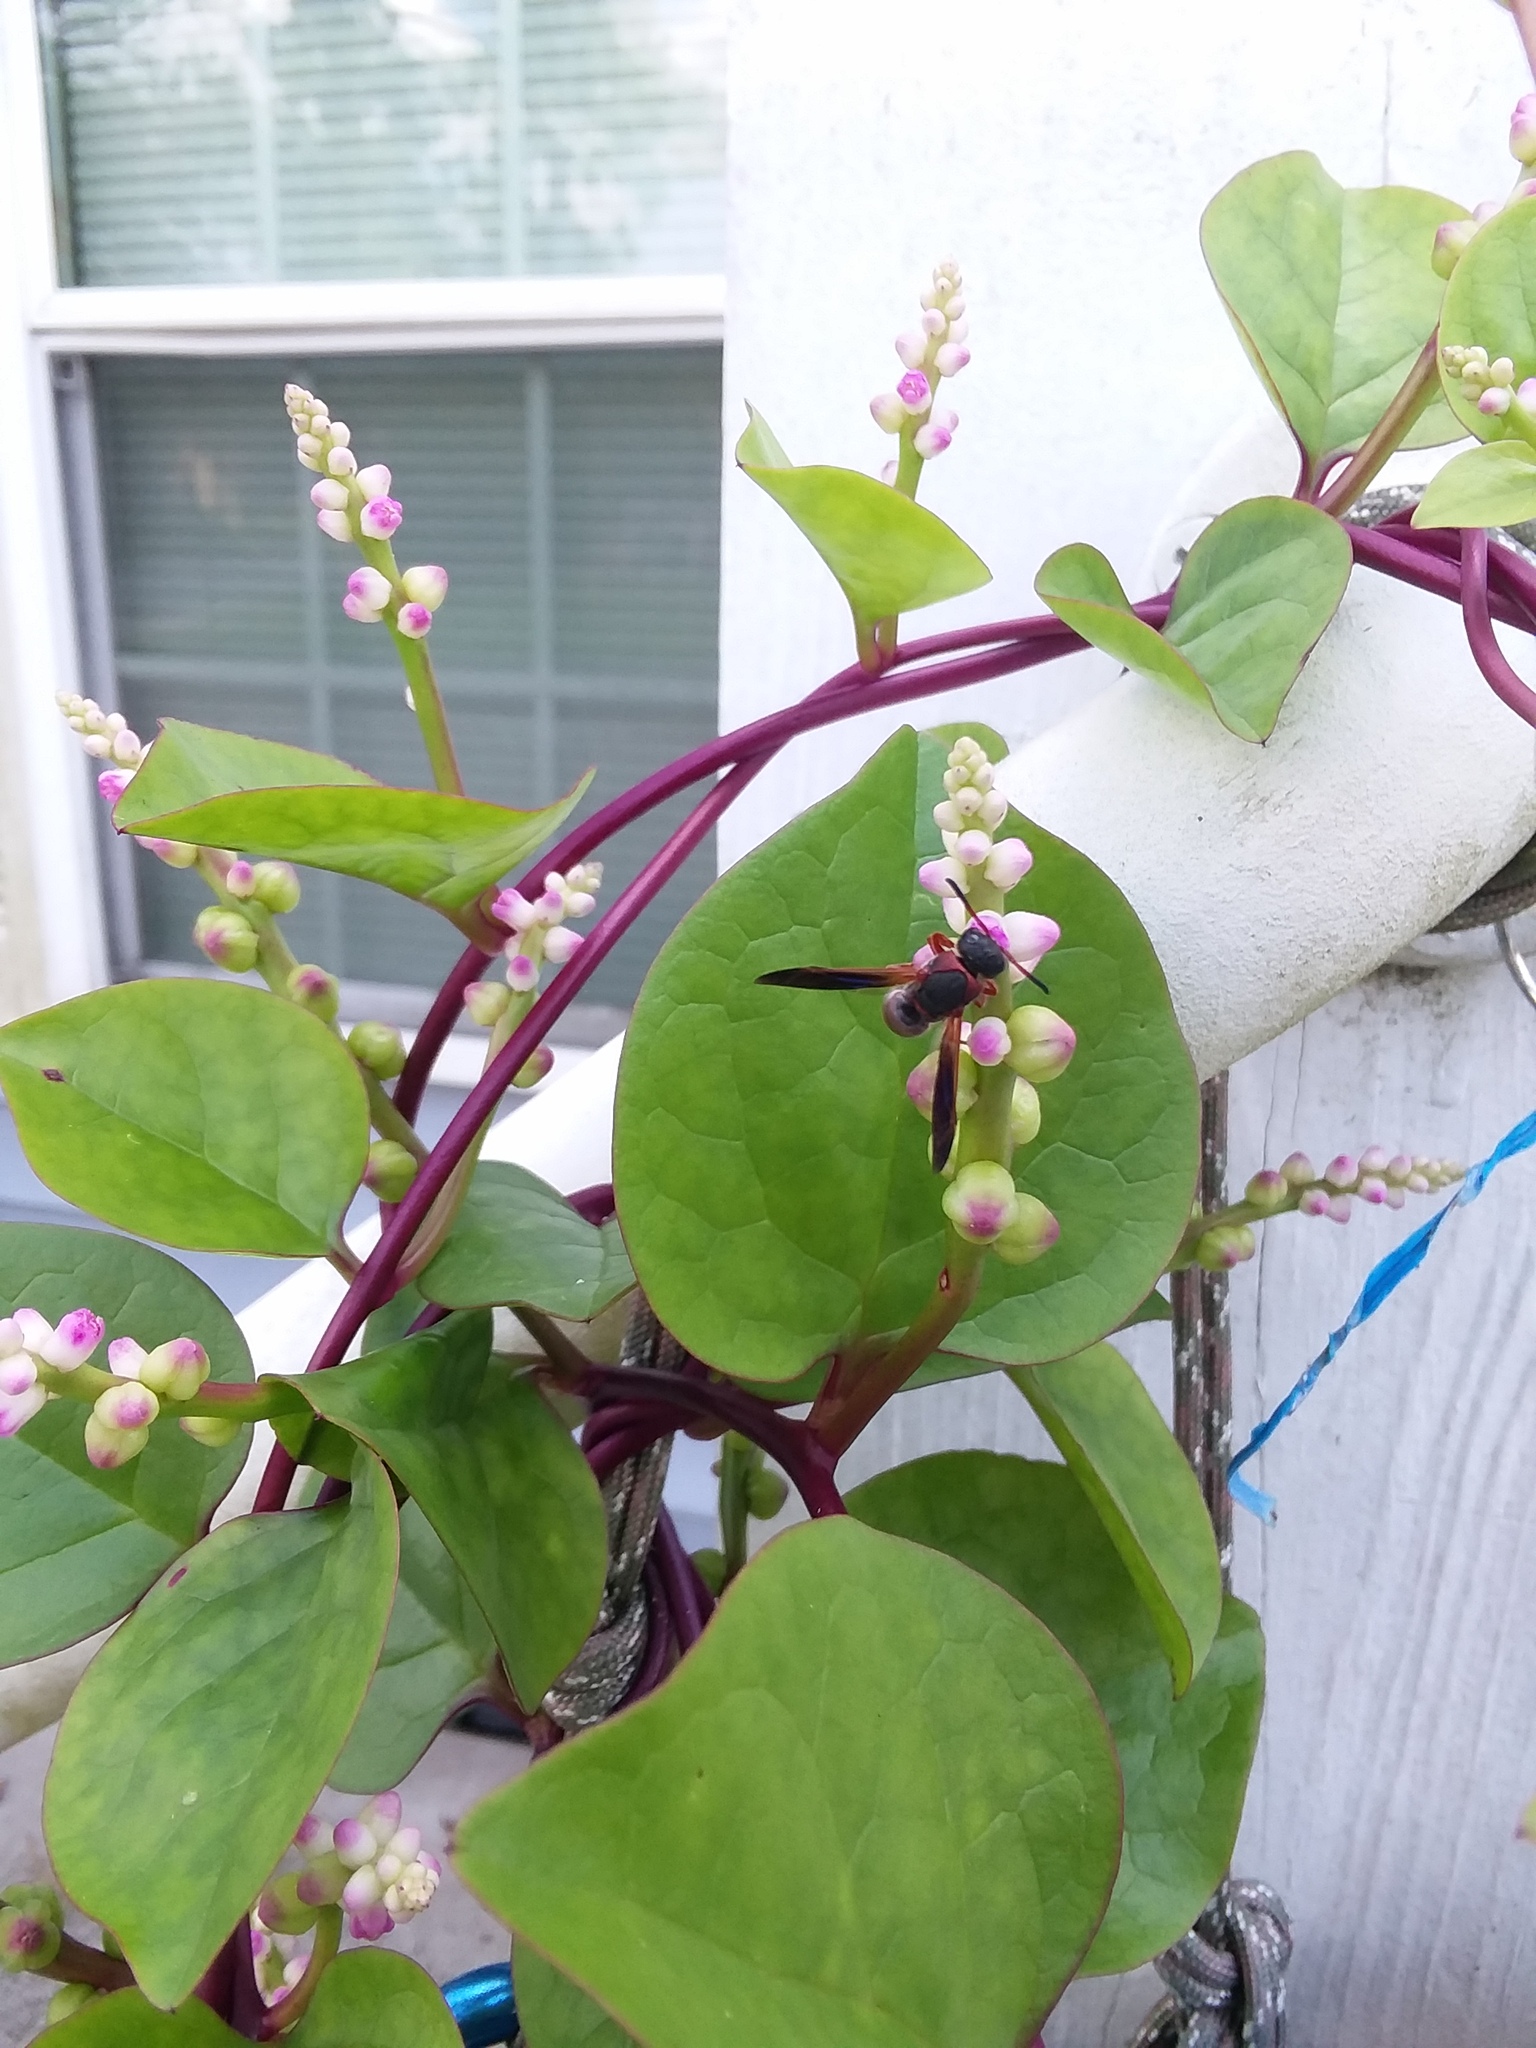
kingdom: Animalia
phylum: Arthropoda
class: Insecta
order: Hymenoptera
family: Eumenidae
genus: Pachodynerus
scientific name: Pachodynerus erynnis
